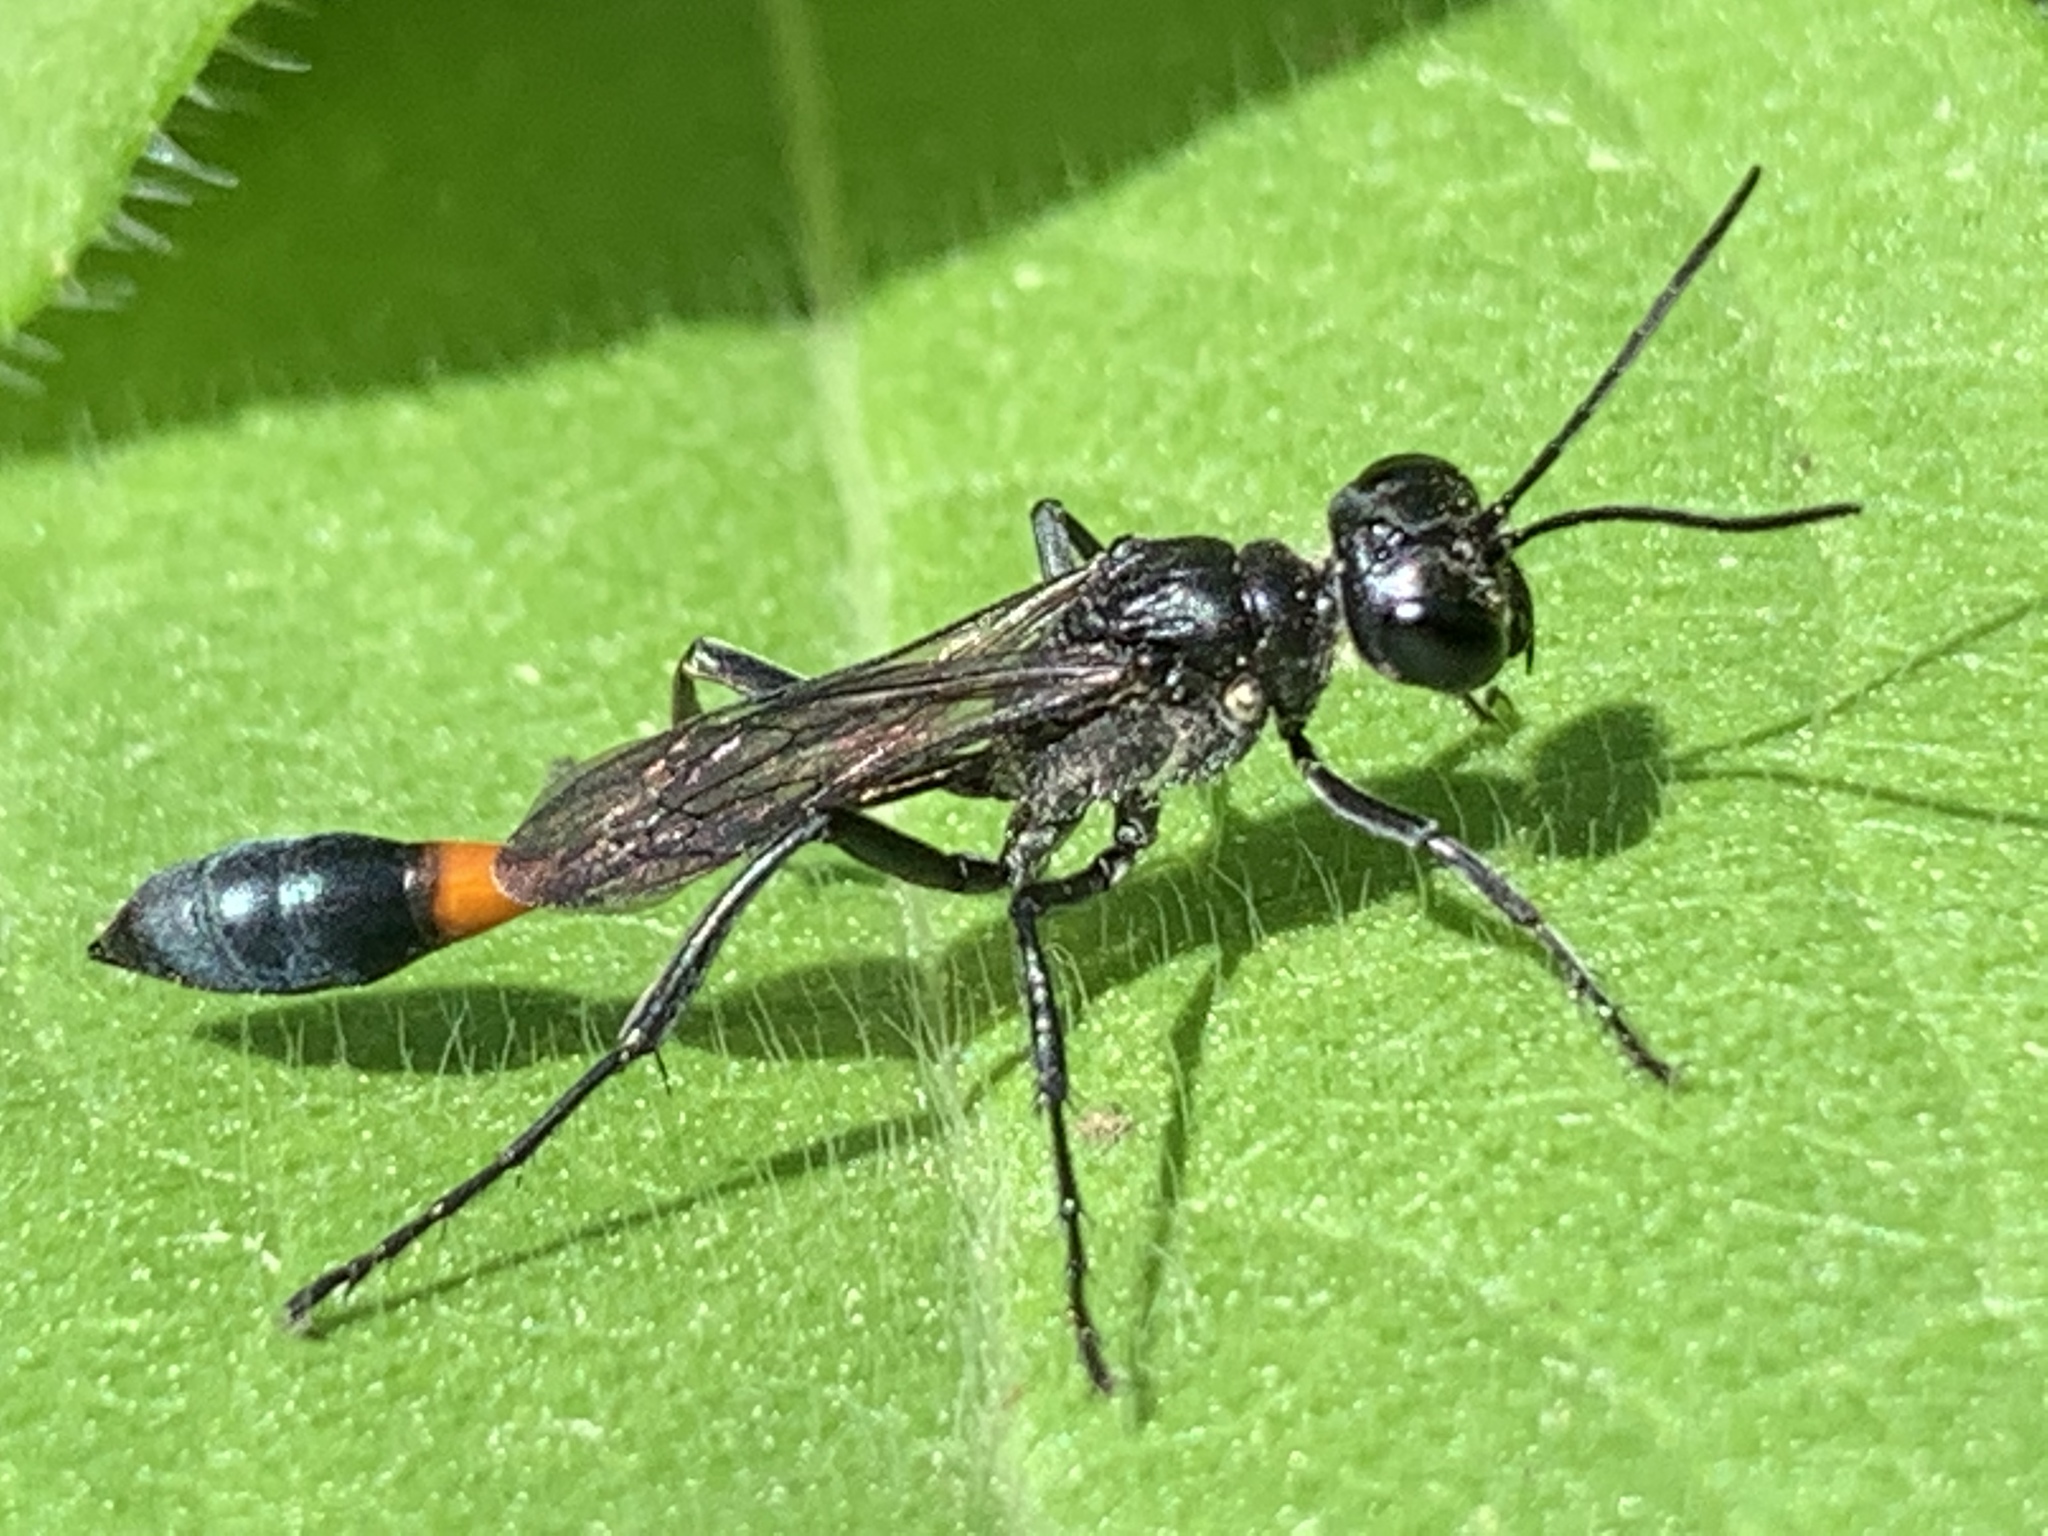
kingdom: Animalia
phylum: Arthropoda
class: Insecta
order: Hymenoptera
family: Sphecidae
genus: Ammophila
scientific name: Ammophila procera
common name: Common thread-waisted wasp
